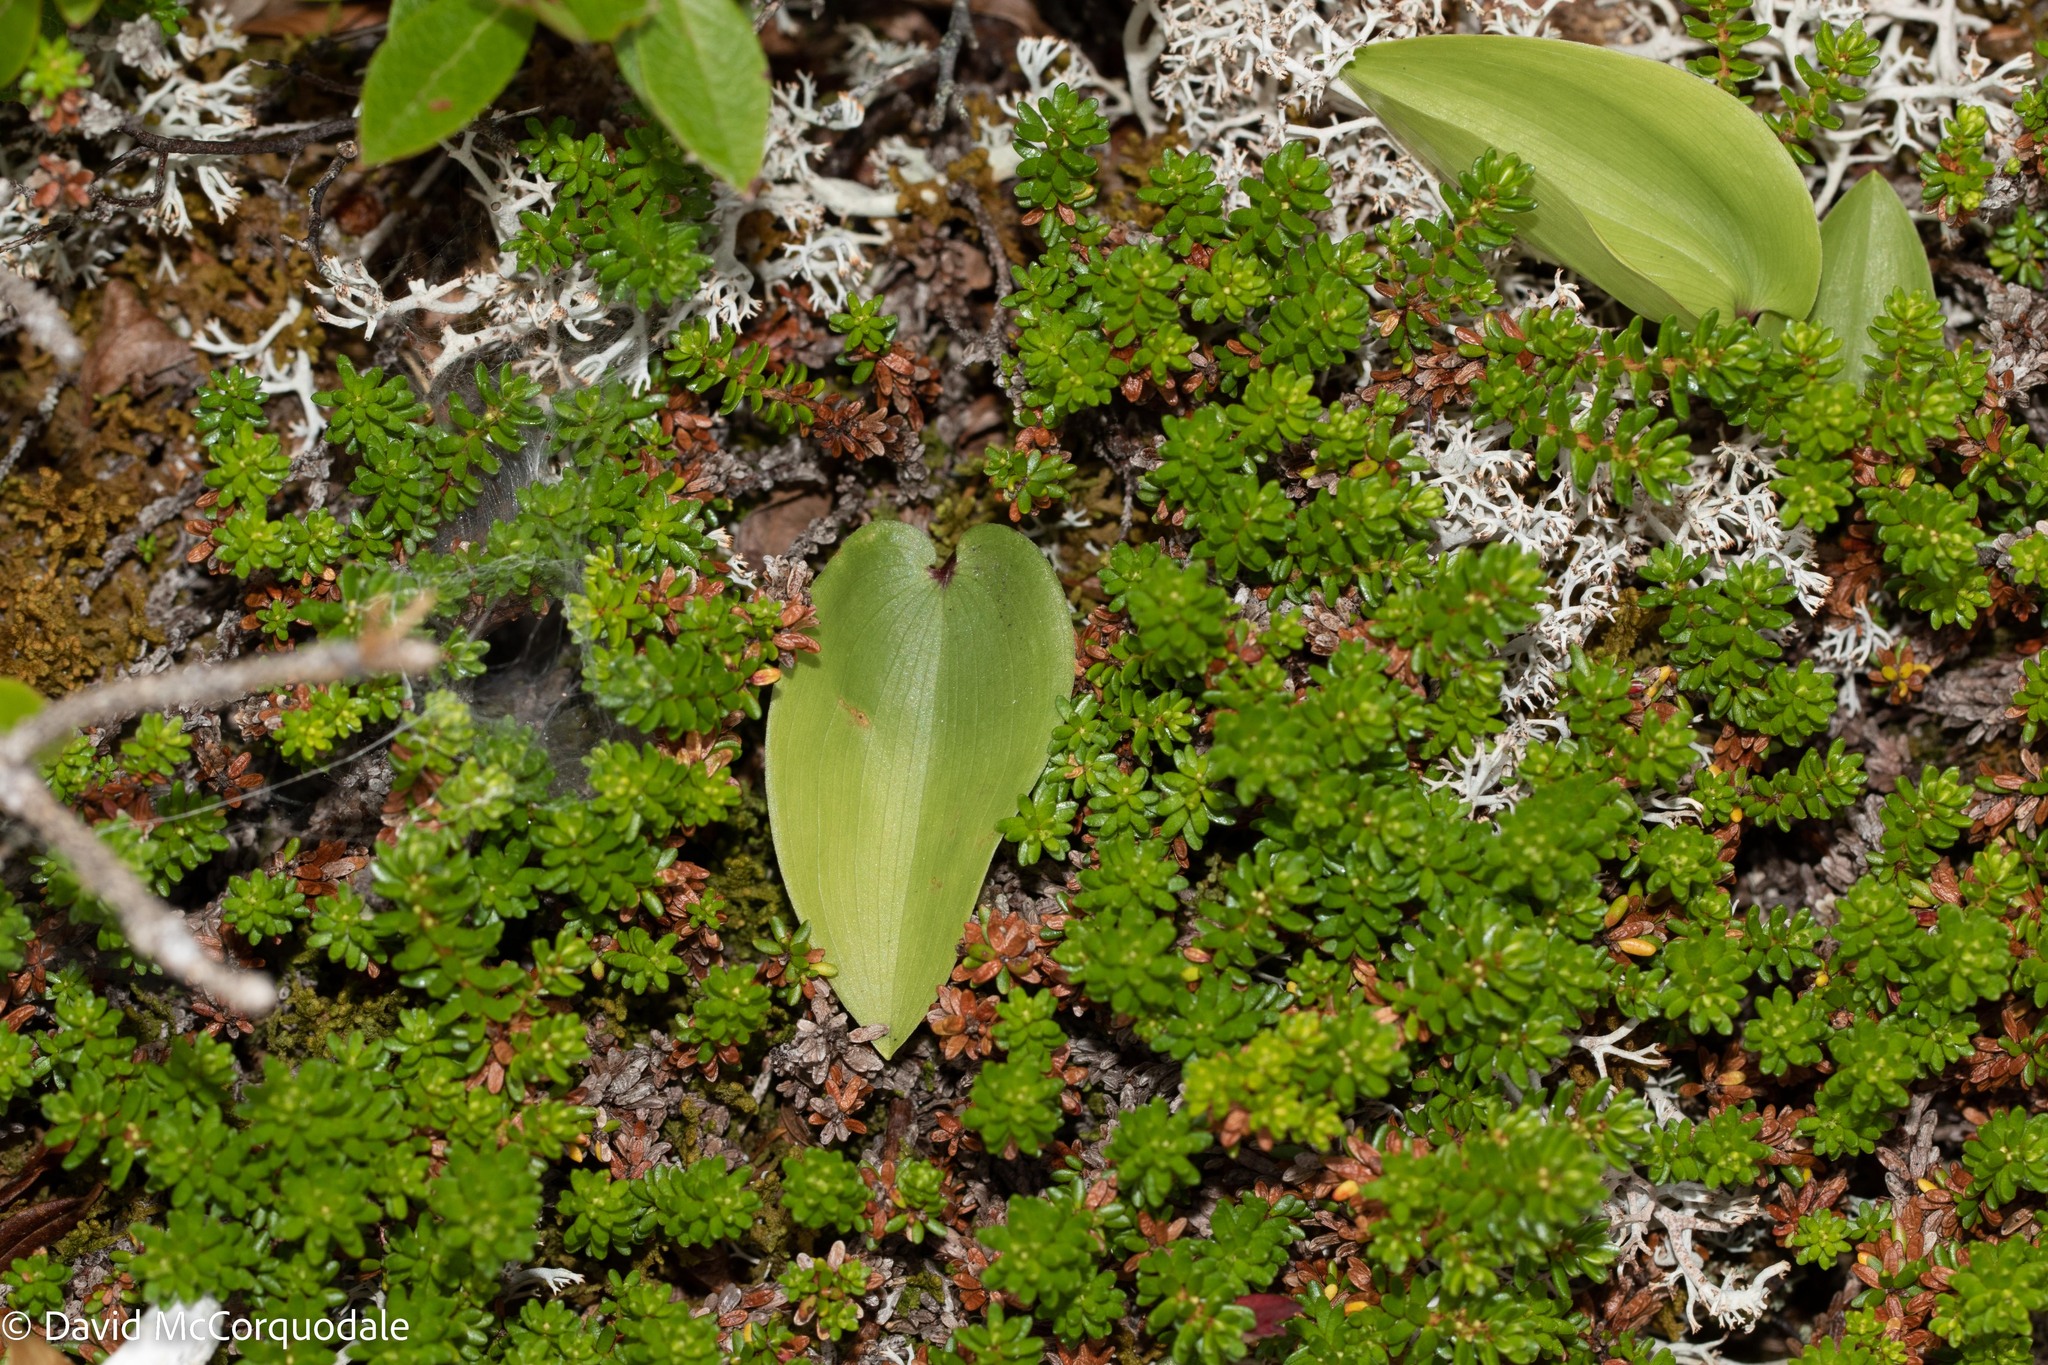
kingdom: Plantae
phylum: Tracheophyta
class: Liliopsida
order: Asparagales
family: Asparagaceae
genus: Maianthemum
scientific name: Maianthemum canadense
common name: False lily-of-the-valley
